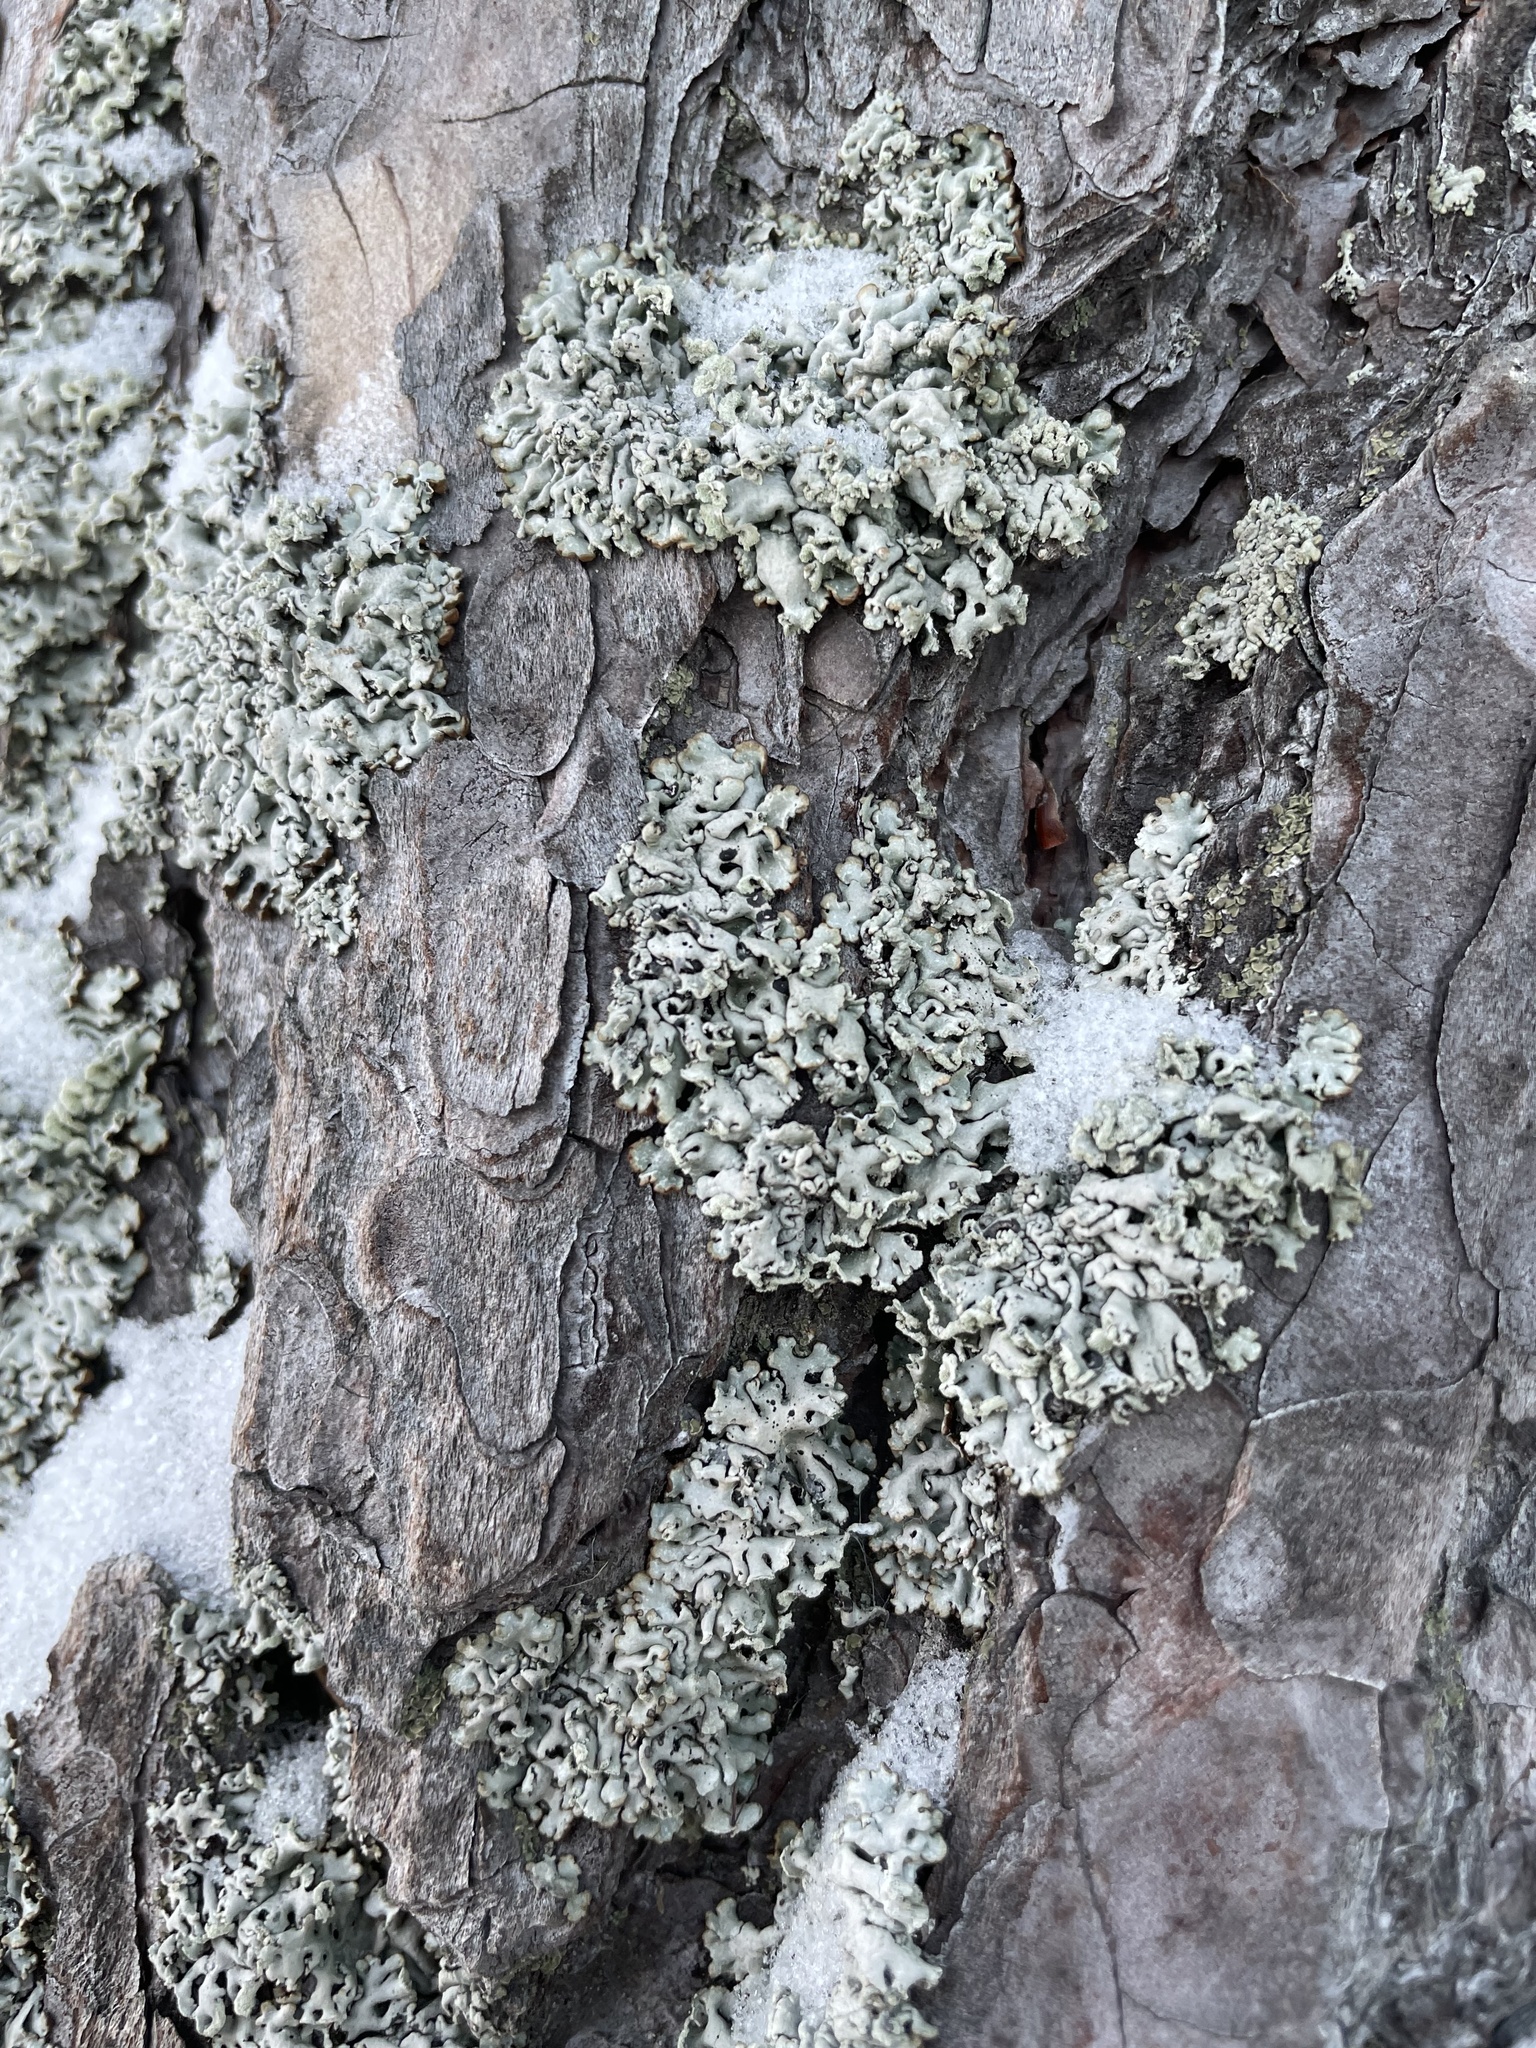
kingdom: Fungi
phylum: Ascomycota
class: Lecanoromycetes
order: Lecanorales
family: Parmeliaceae
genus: Hypogymnia
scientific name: Hypogymnia physodes
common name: Dark crottle
